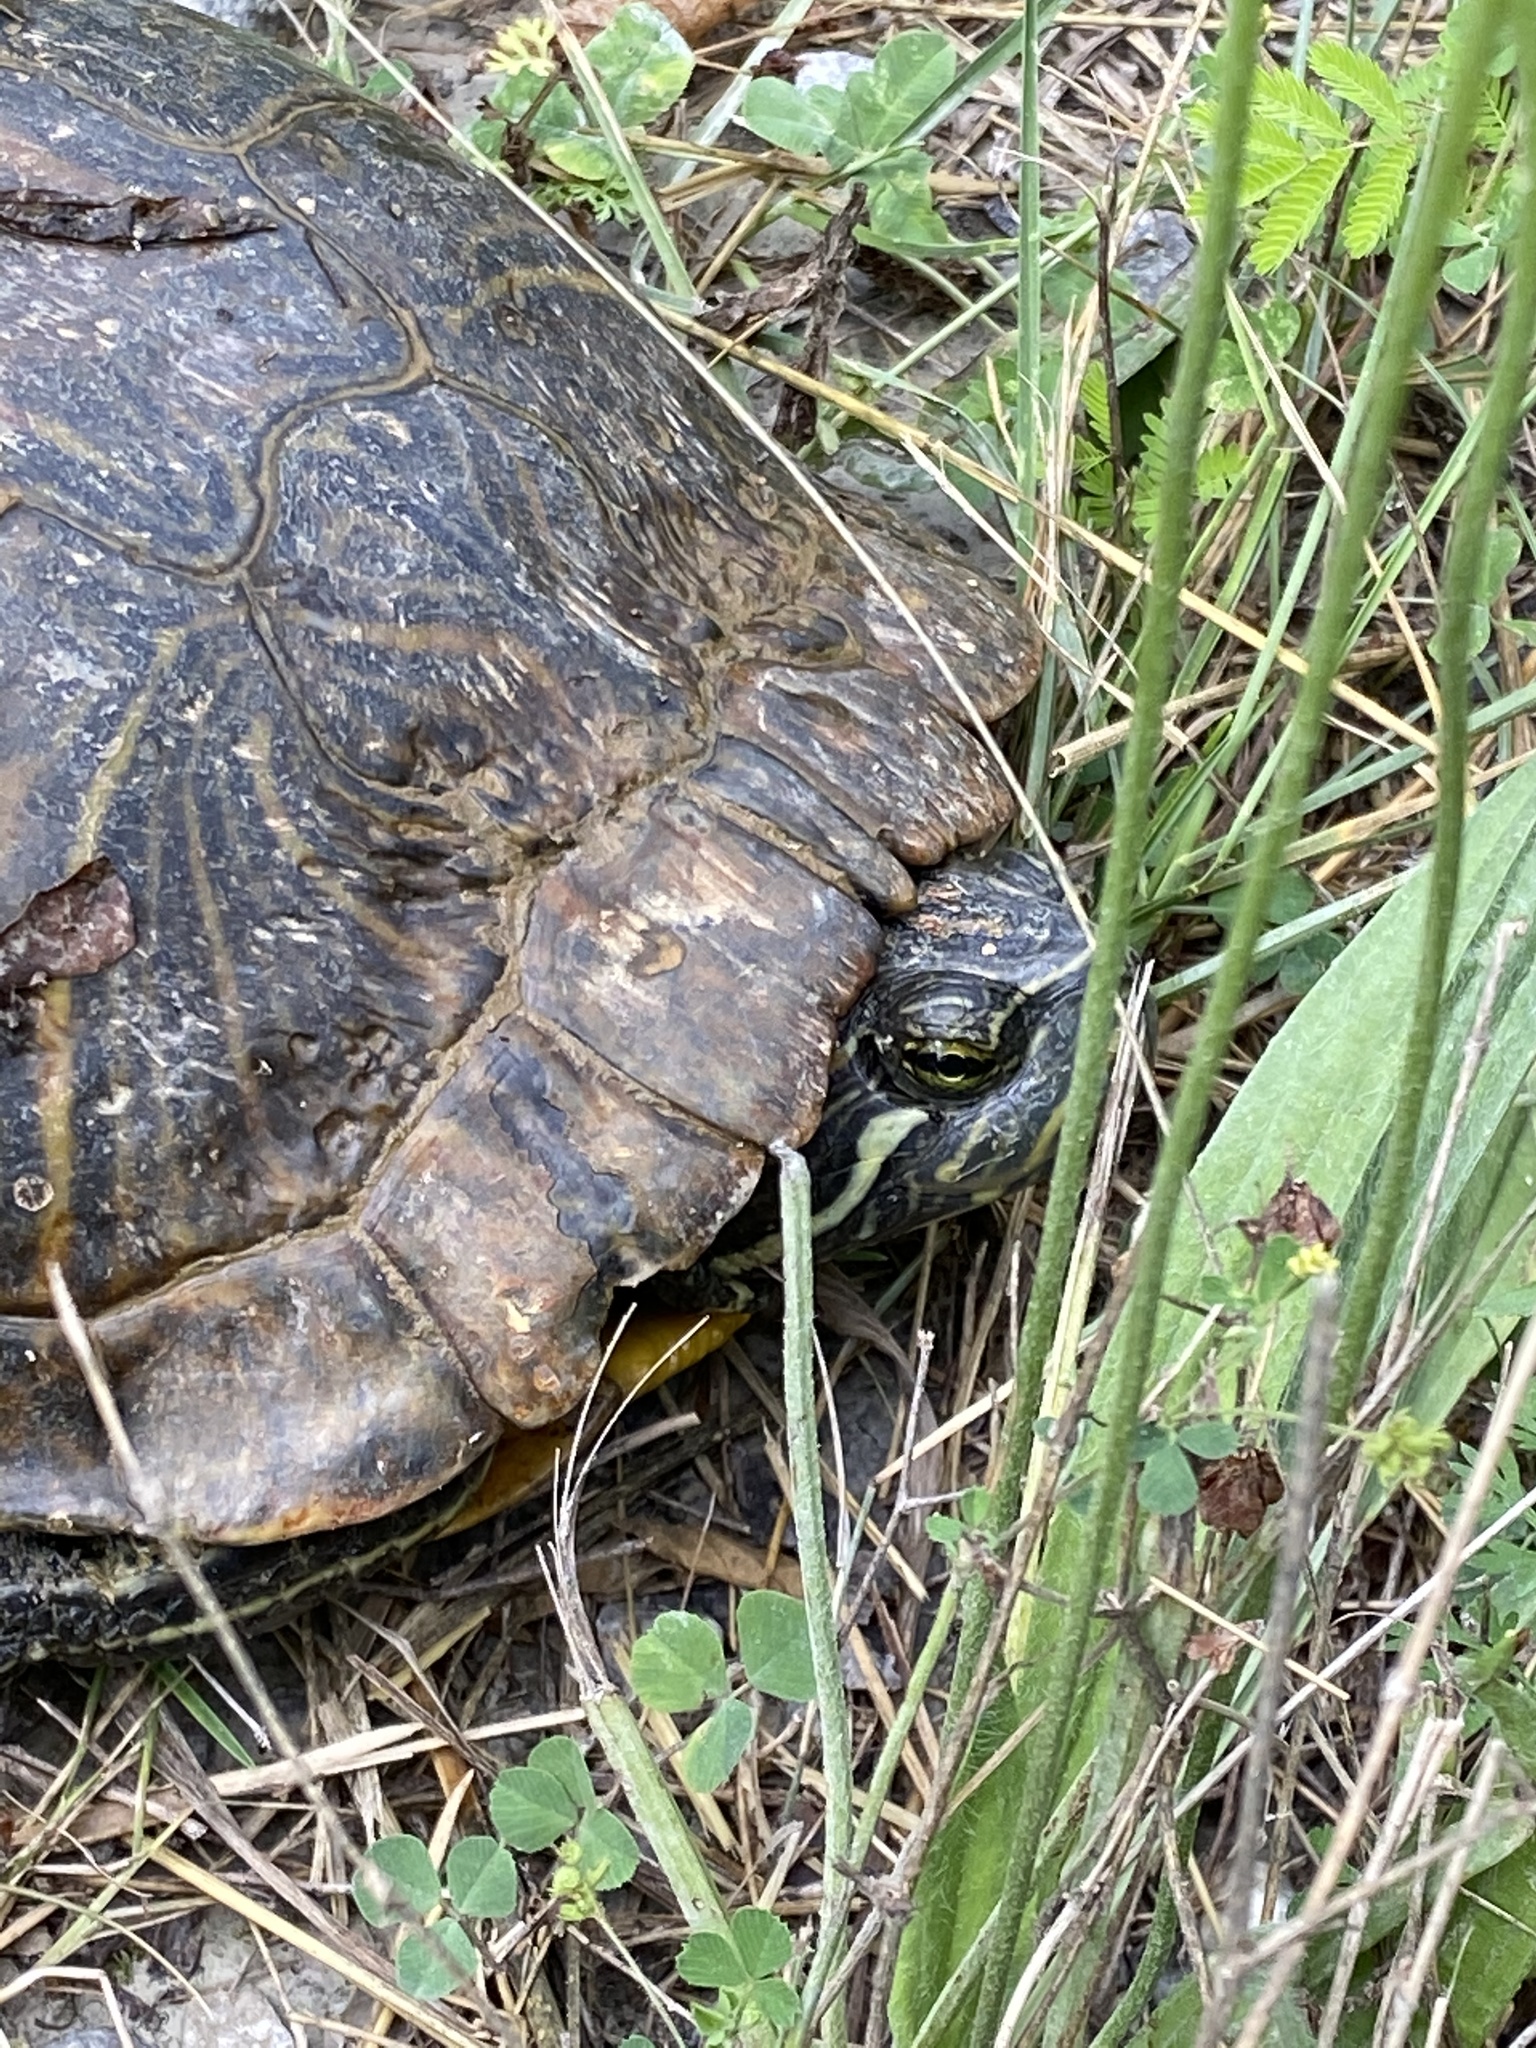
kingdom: Animalia
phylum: Chordata
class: Testudines
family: Emydidae
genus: Trachemys
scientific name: Trachemys scripta
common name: Slider
